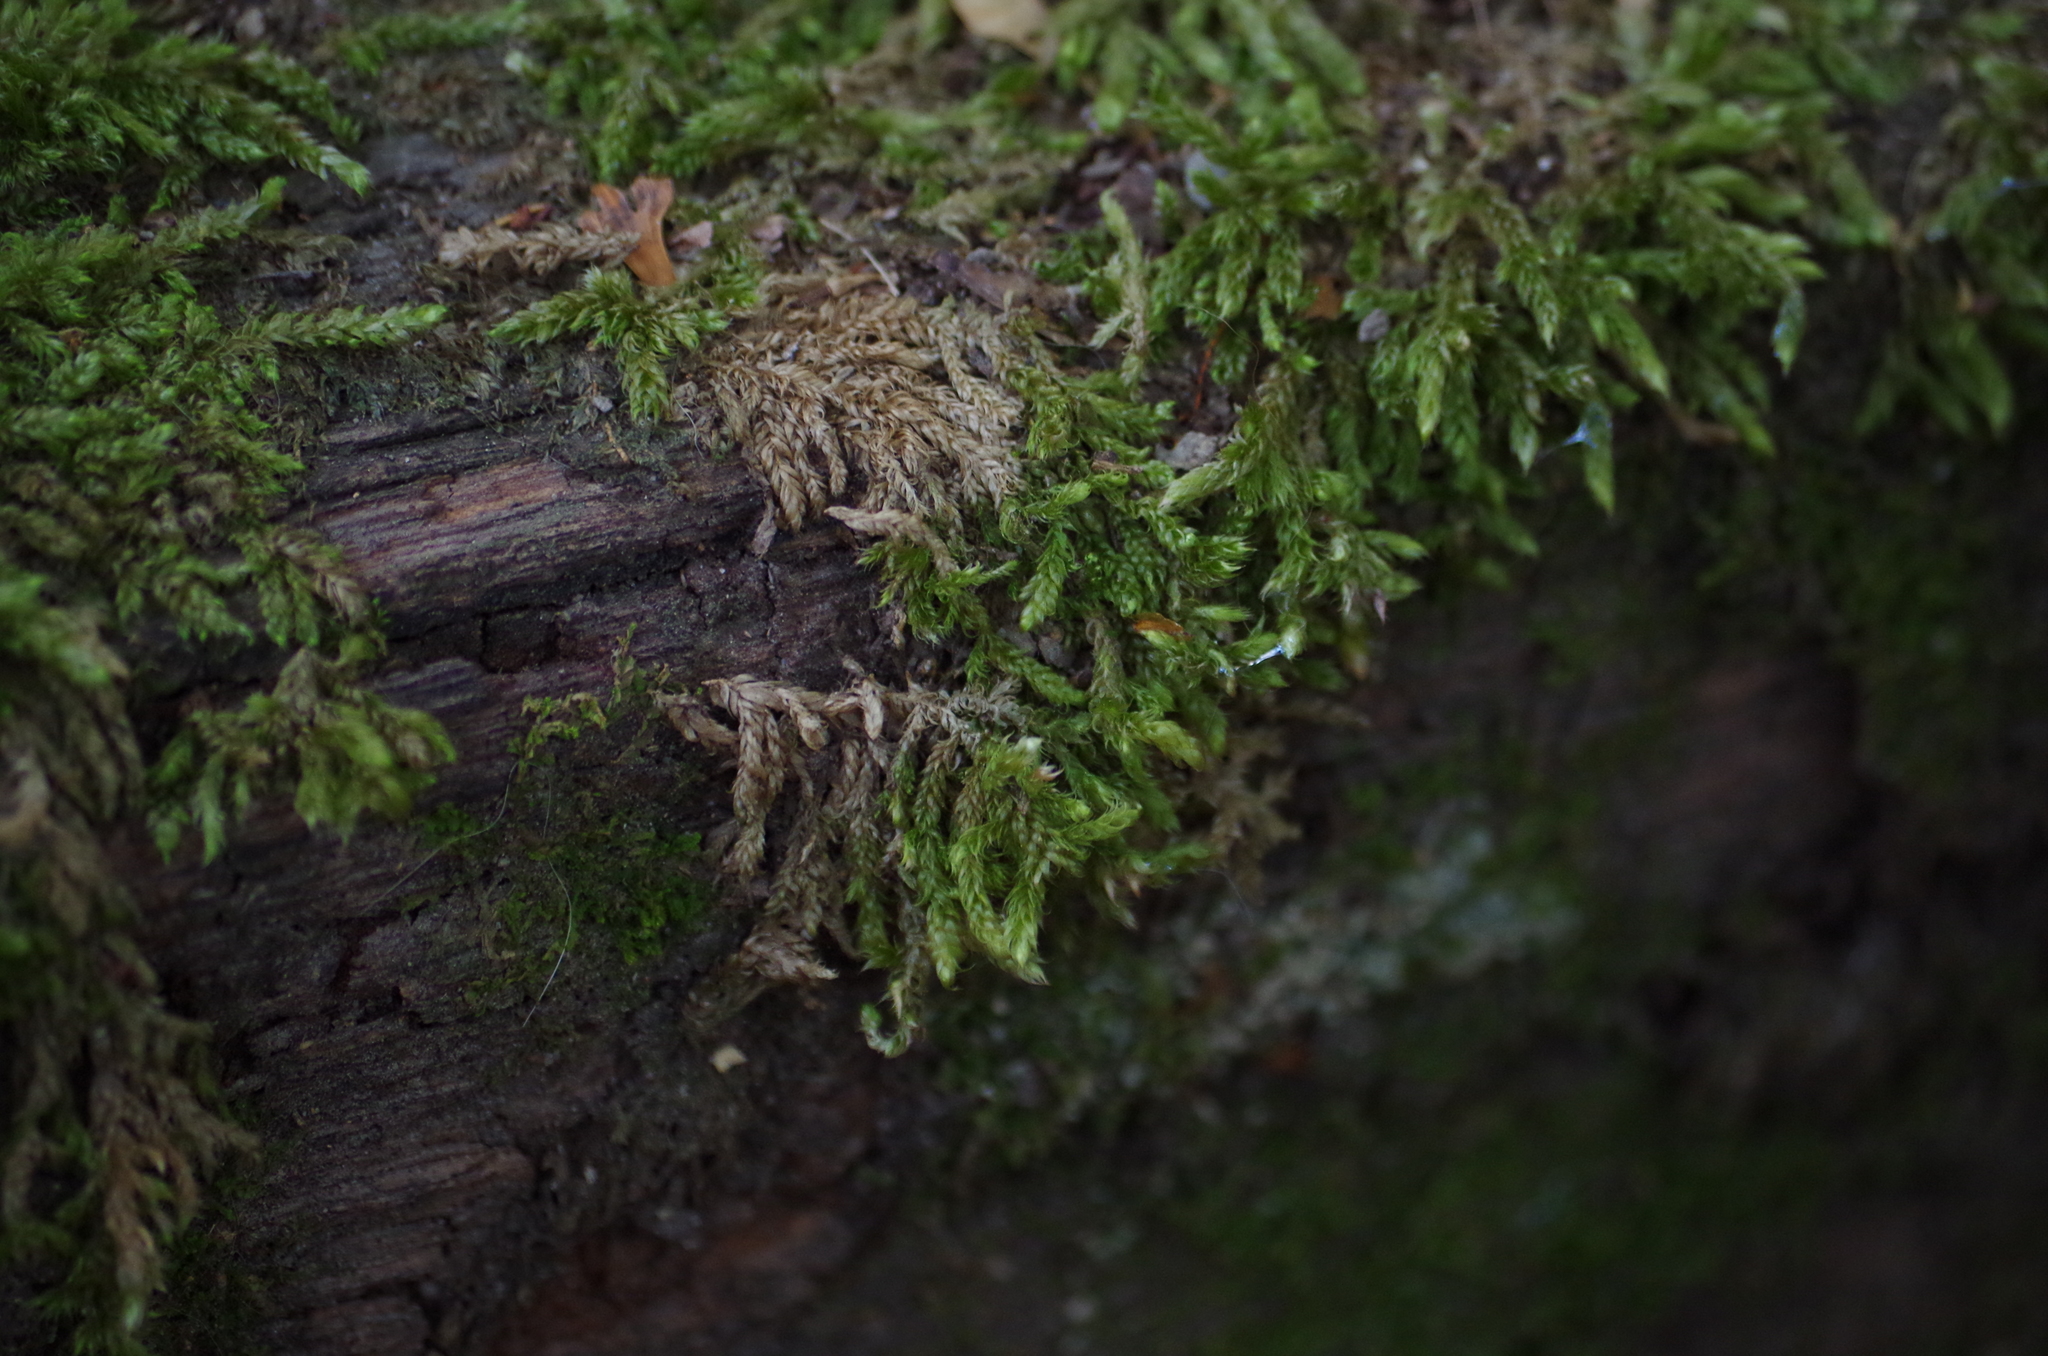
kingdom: Plantae
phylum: Bryophyta
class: Bryopsida
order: Hypnales
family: Hypnaceae
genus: Hypnum
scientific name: Hypnum cupressiforme
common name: Cypress-leaved plait-moss
